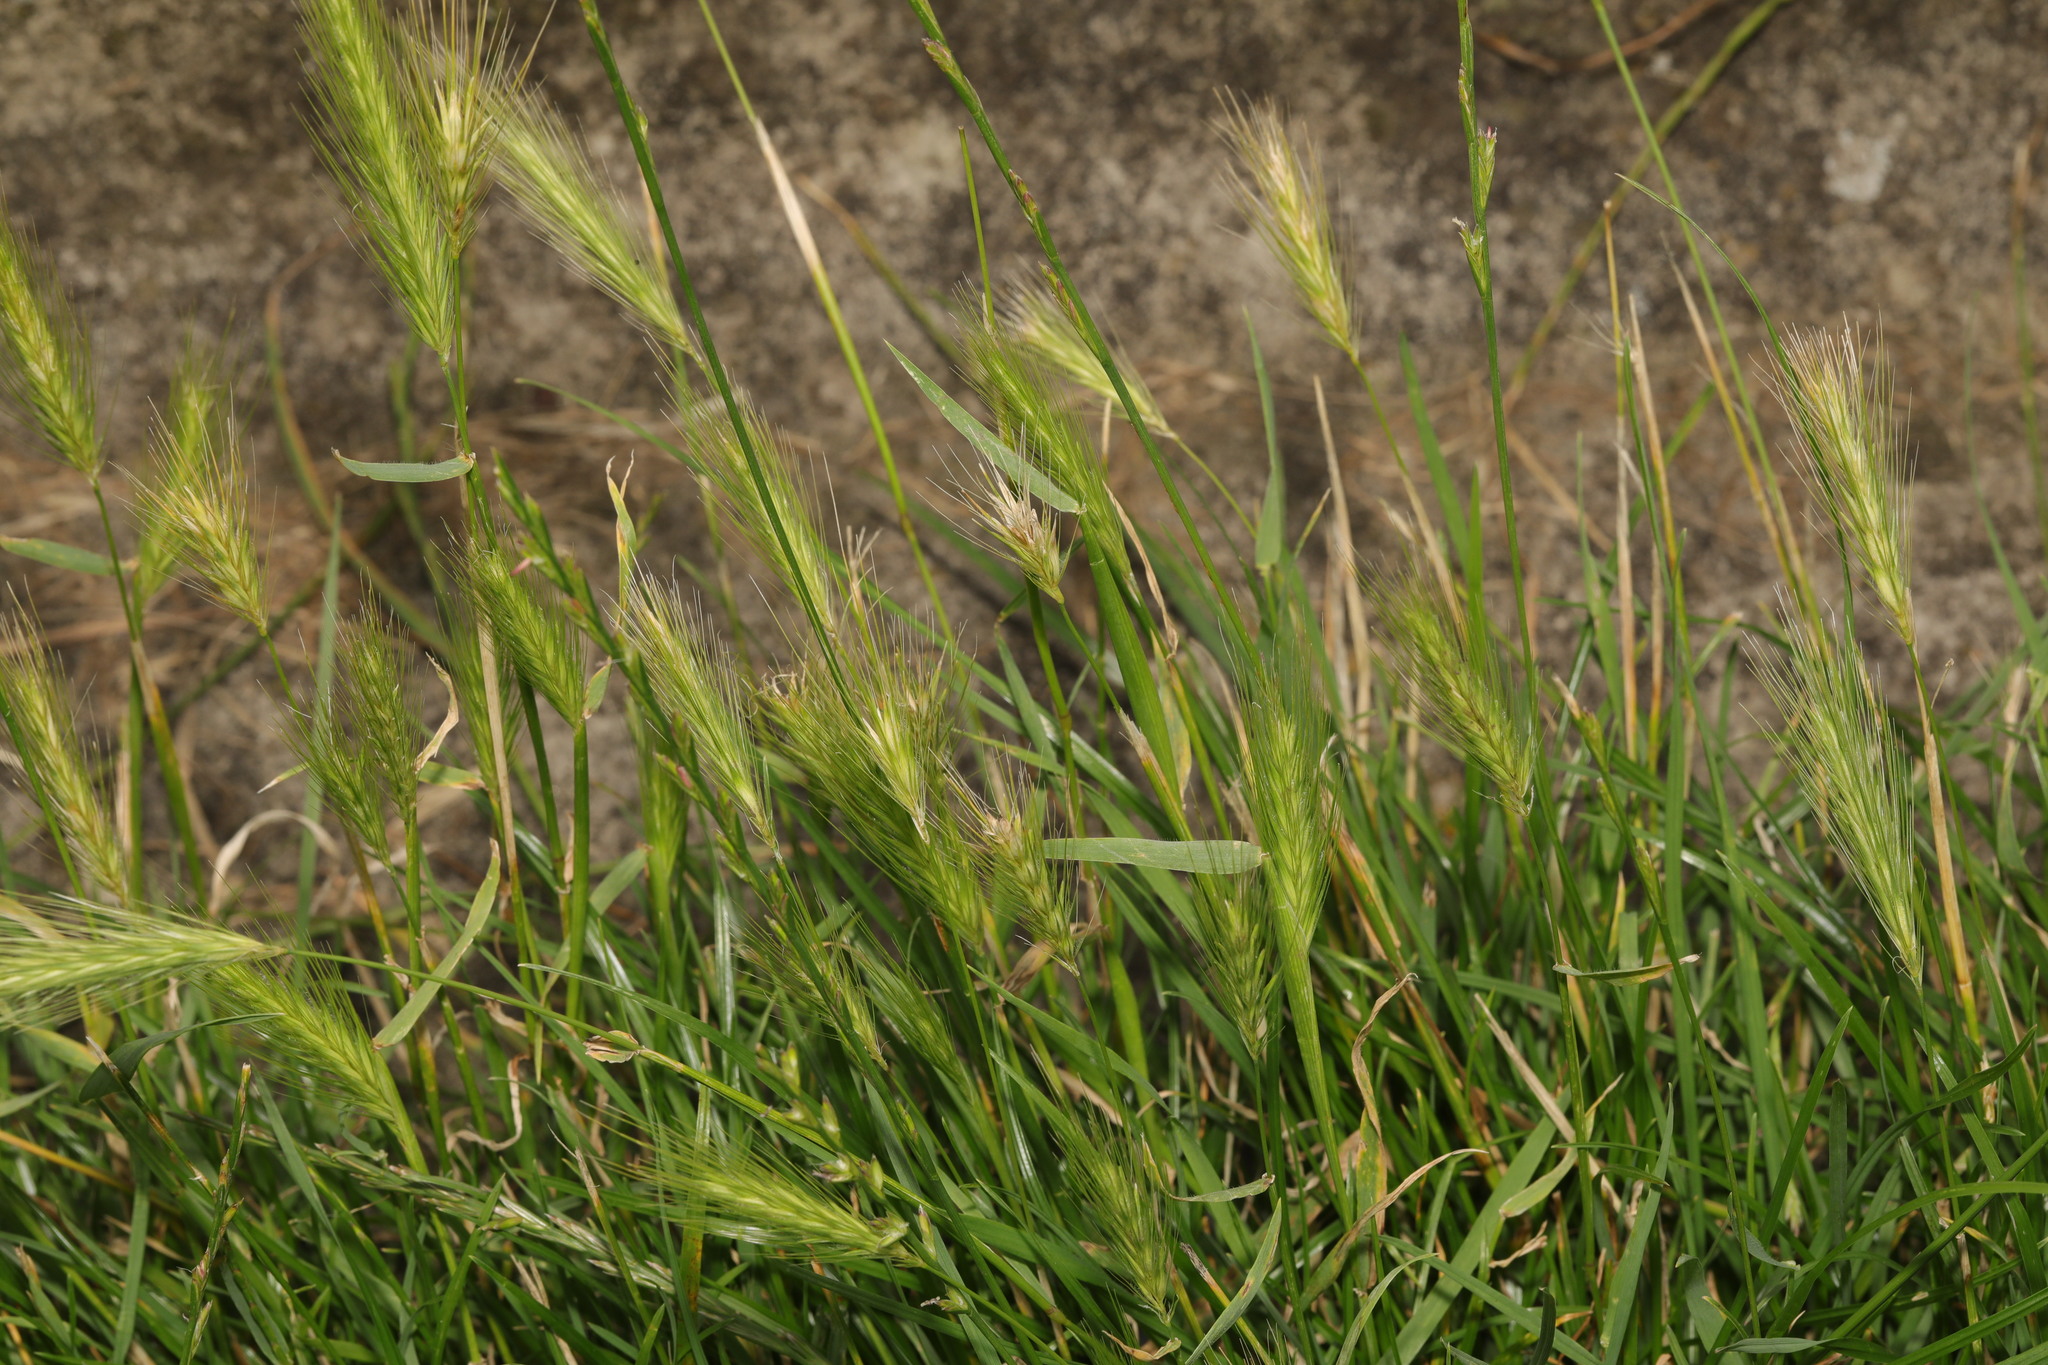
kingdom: Plantae
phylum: Tracheophyta
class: Liliopsida
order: Poales
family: Poaceae
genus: Hordeum
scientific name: Hordeum murinum
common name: Wall barley
